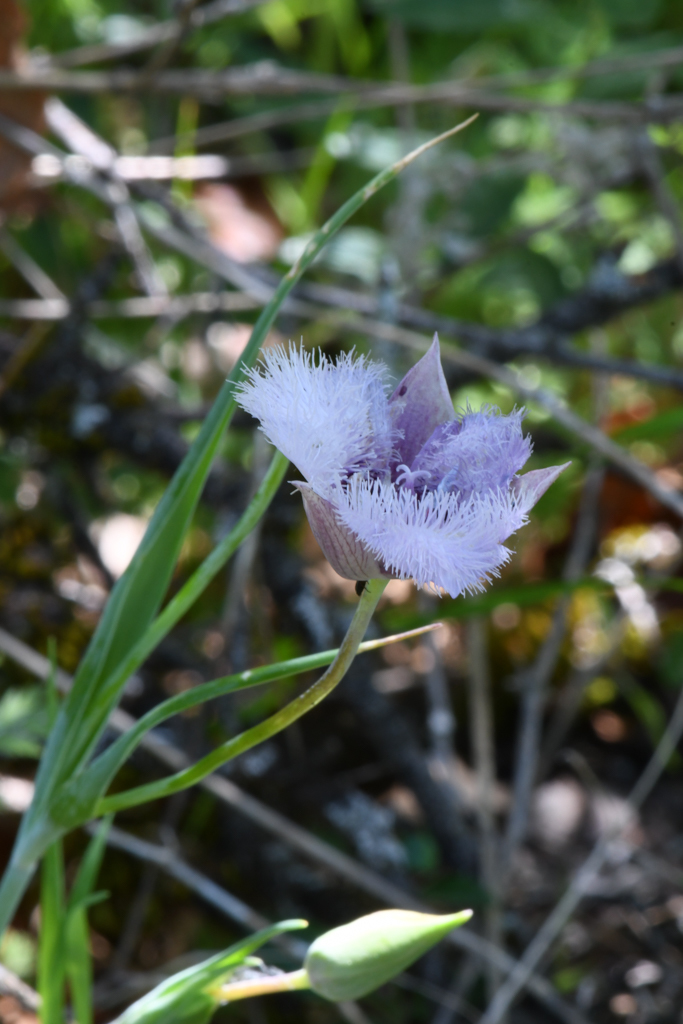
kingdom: Plantae
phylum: Tracheophyta
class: Liliopsida
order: Liliales
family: Liliaceae
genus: Calochortus
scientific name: Calochortus tolmiei
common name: Pussy-ears
